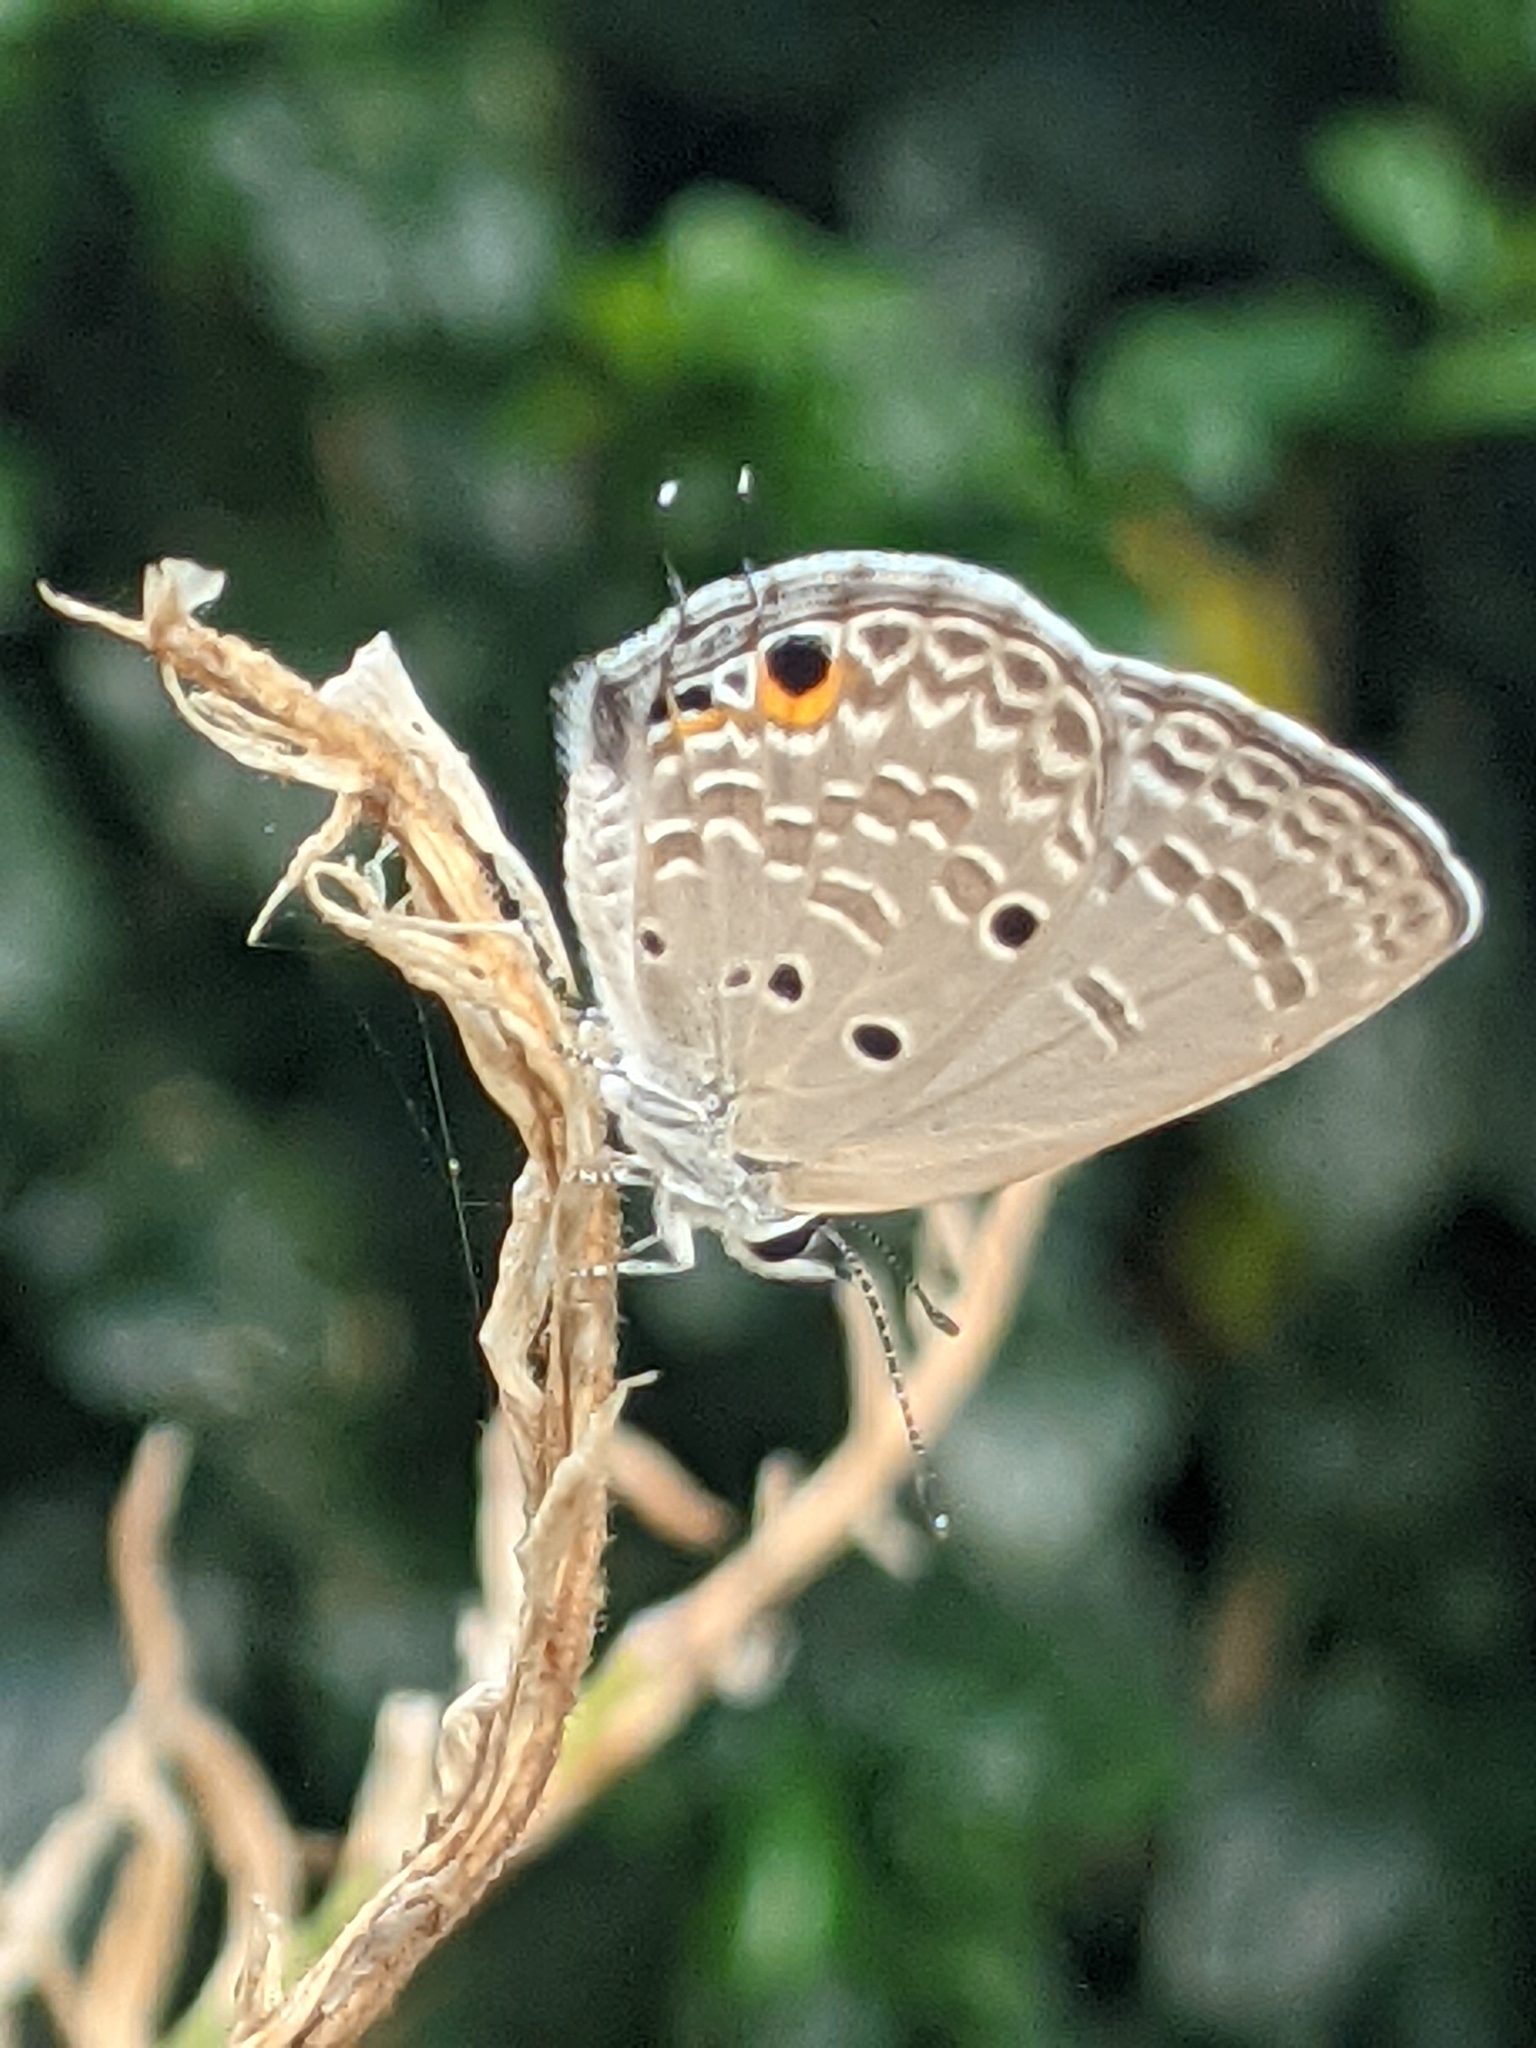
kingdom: Animalia
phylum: Arthropoda
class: Insecta
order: Lepidoptera
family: Lycaenidae
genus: Luthrodes
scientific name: Luthrodes pandava
